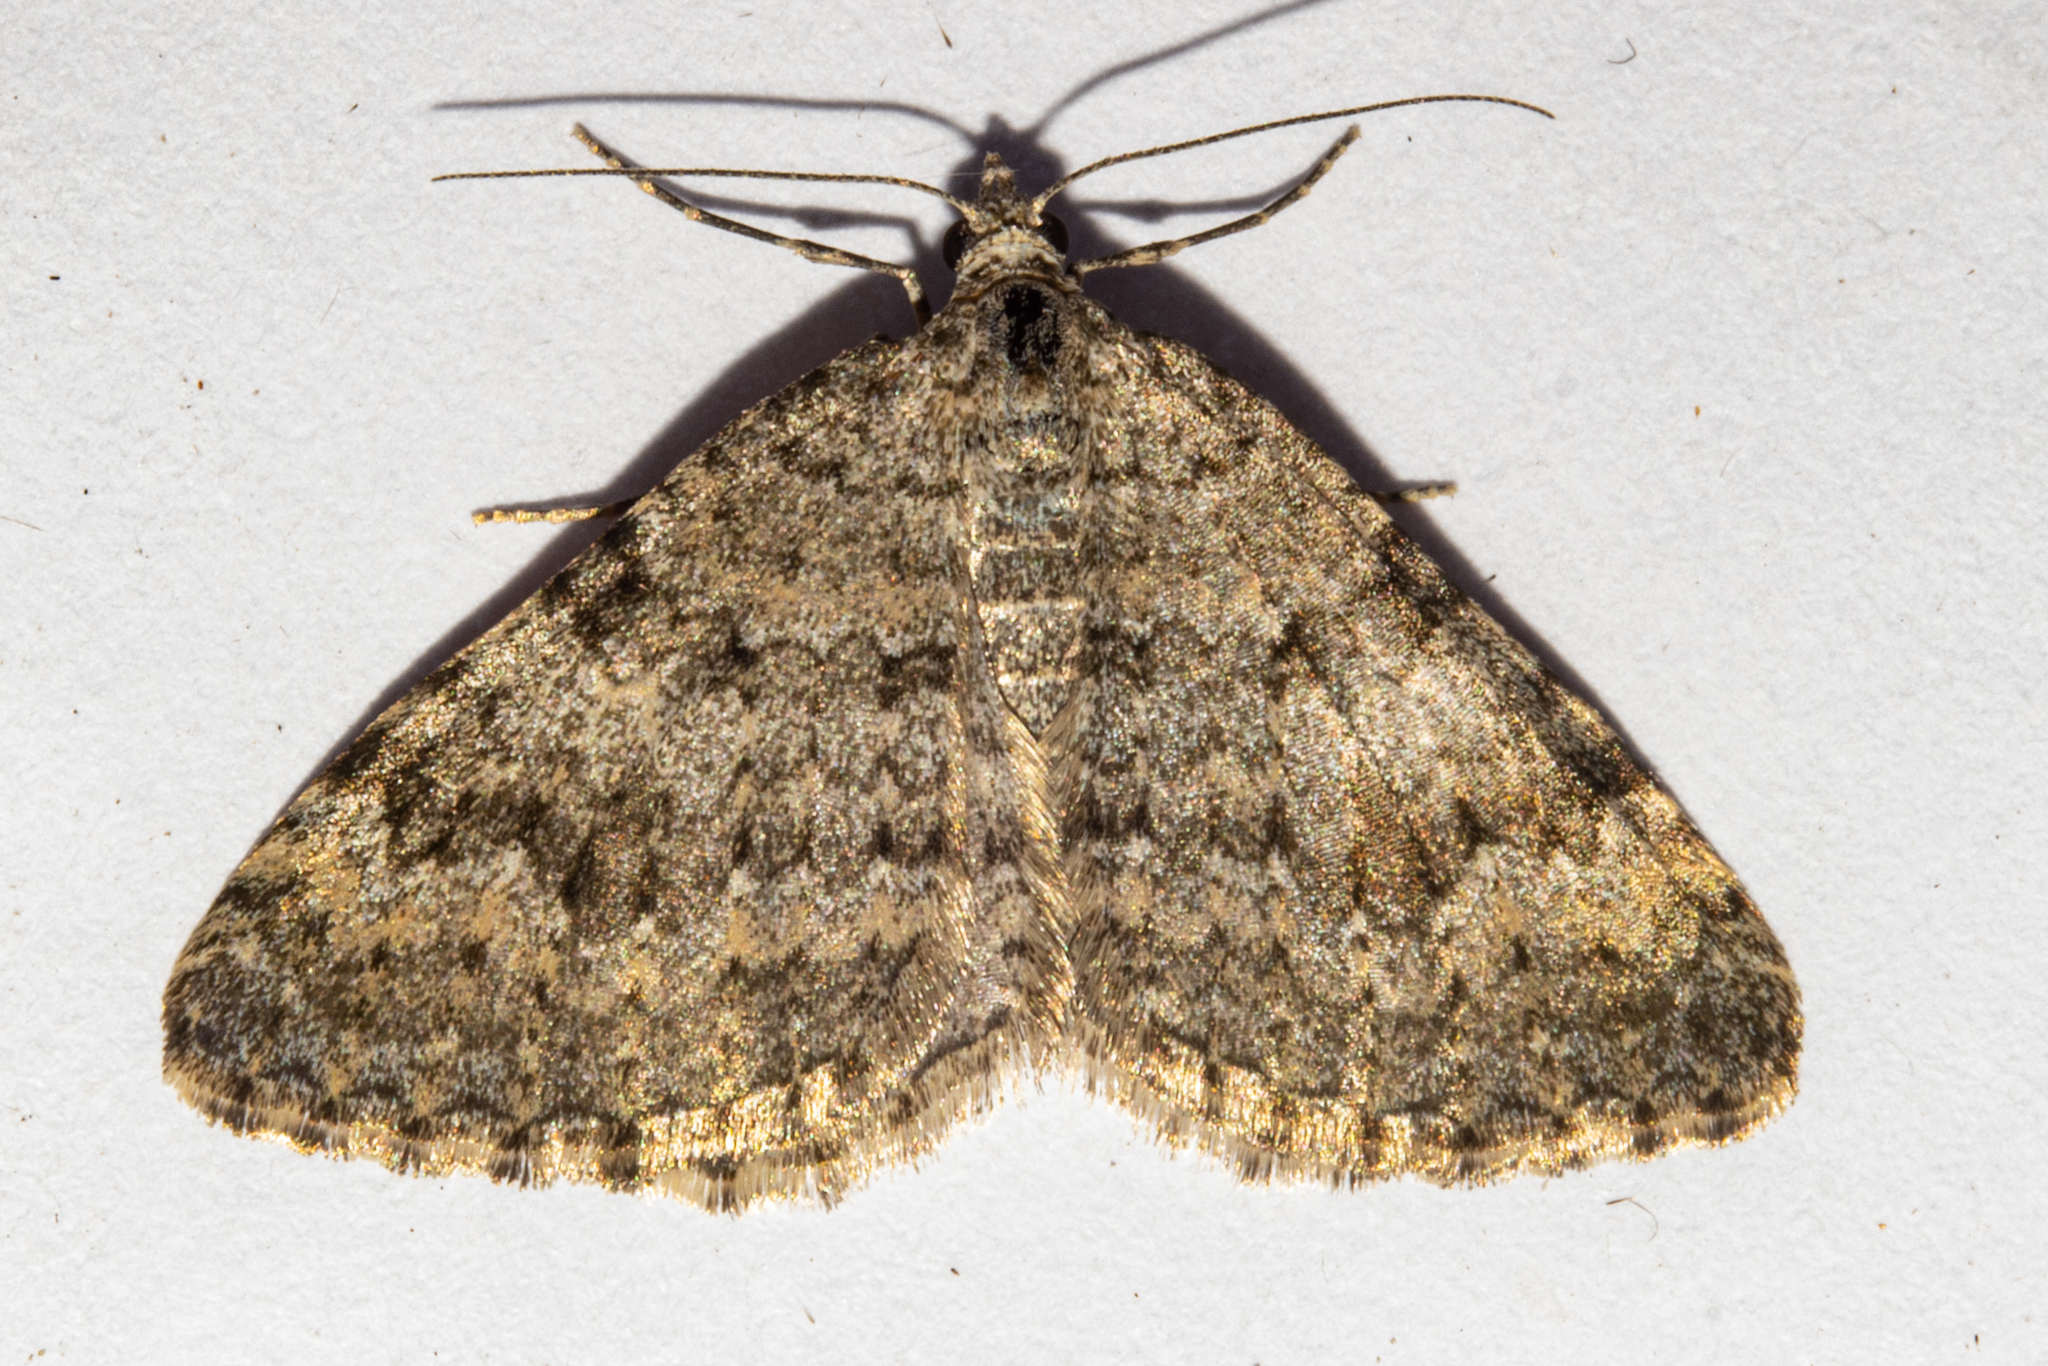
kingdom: Animalia
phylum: Arthropoda
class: Insecta
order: Lepidoptera
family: Geometridae
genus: Helastia
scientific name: Helastia corcularia
